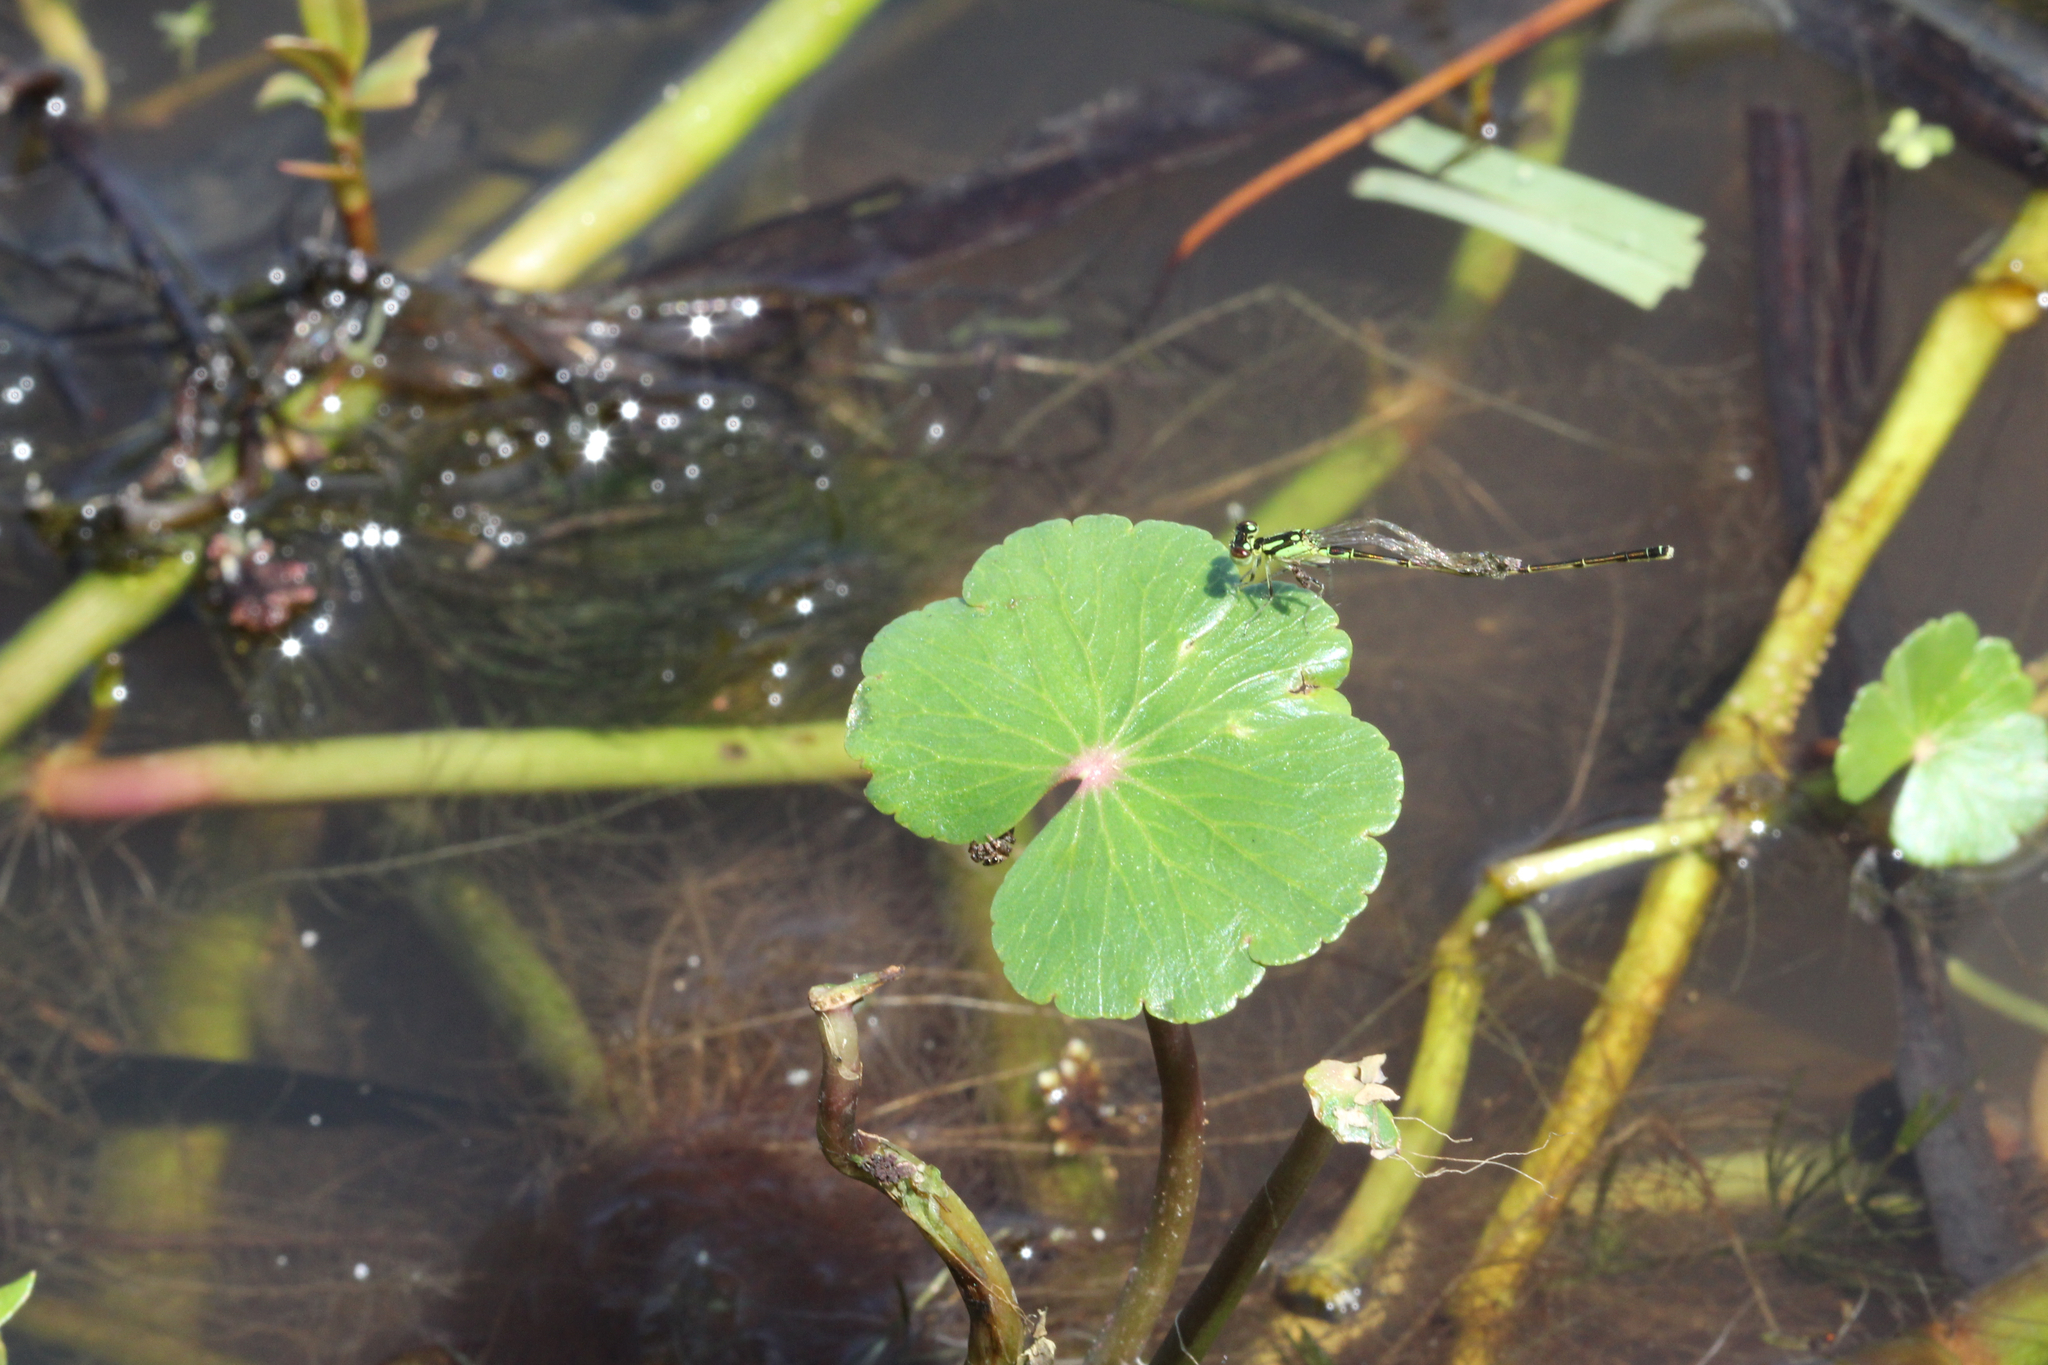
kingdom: Plantae
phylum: Tracheophyta
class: Magnoliopsida
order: Apiales
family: Araliaceae
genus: Hydrocotyle
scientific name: Hydrocotyle ranunculoides
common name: Floating pennywort
